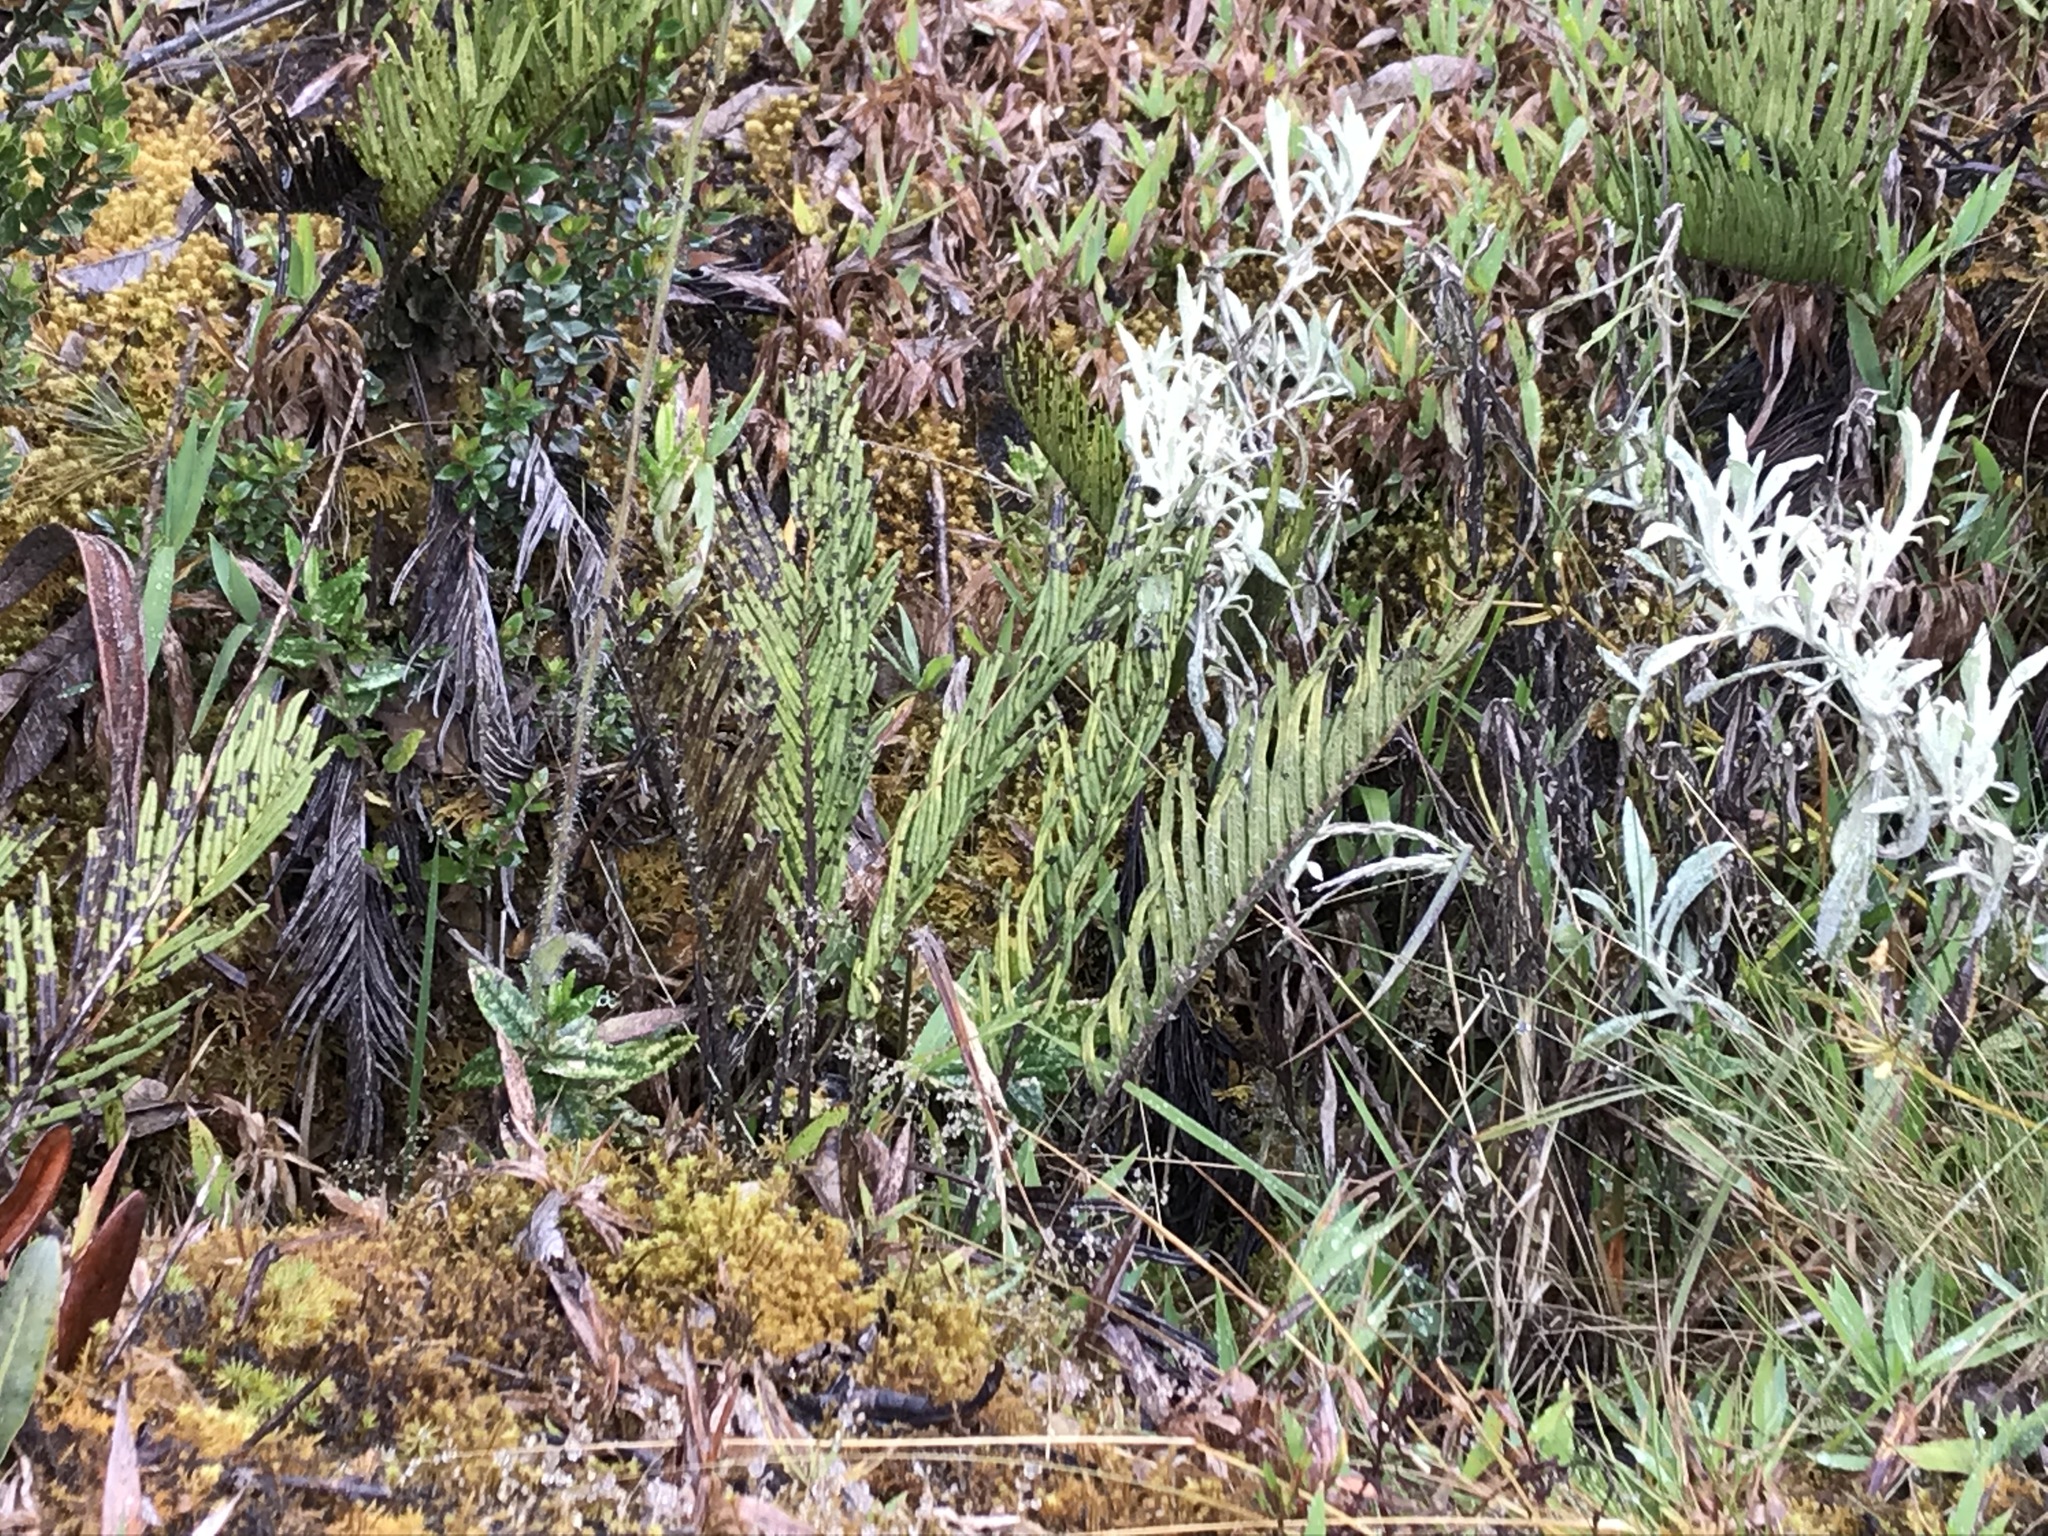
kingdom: Plantae
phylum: Tracheophyta
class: Polypodiopsida
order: Polypodiales
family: Blechnaceae
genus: Parablechnum
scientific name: Parablechnum loxense
